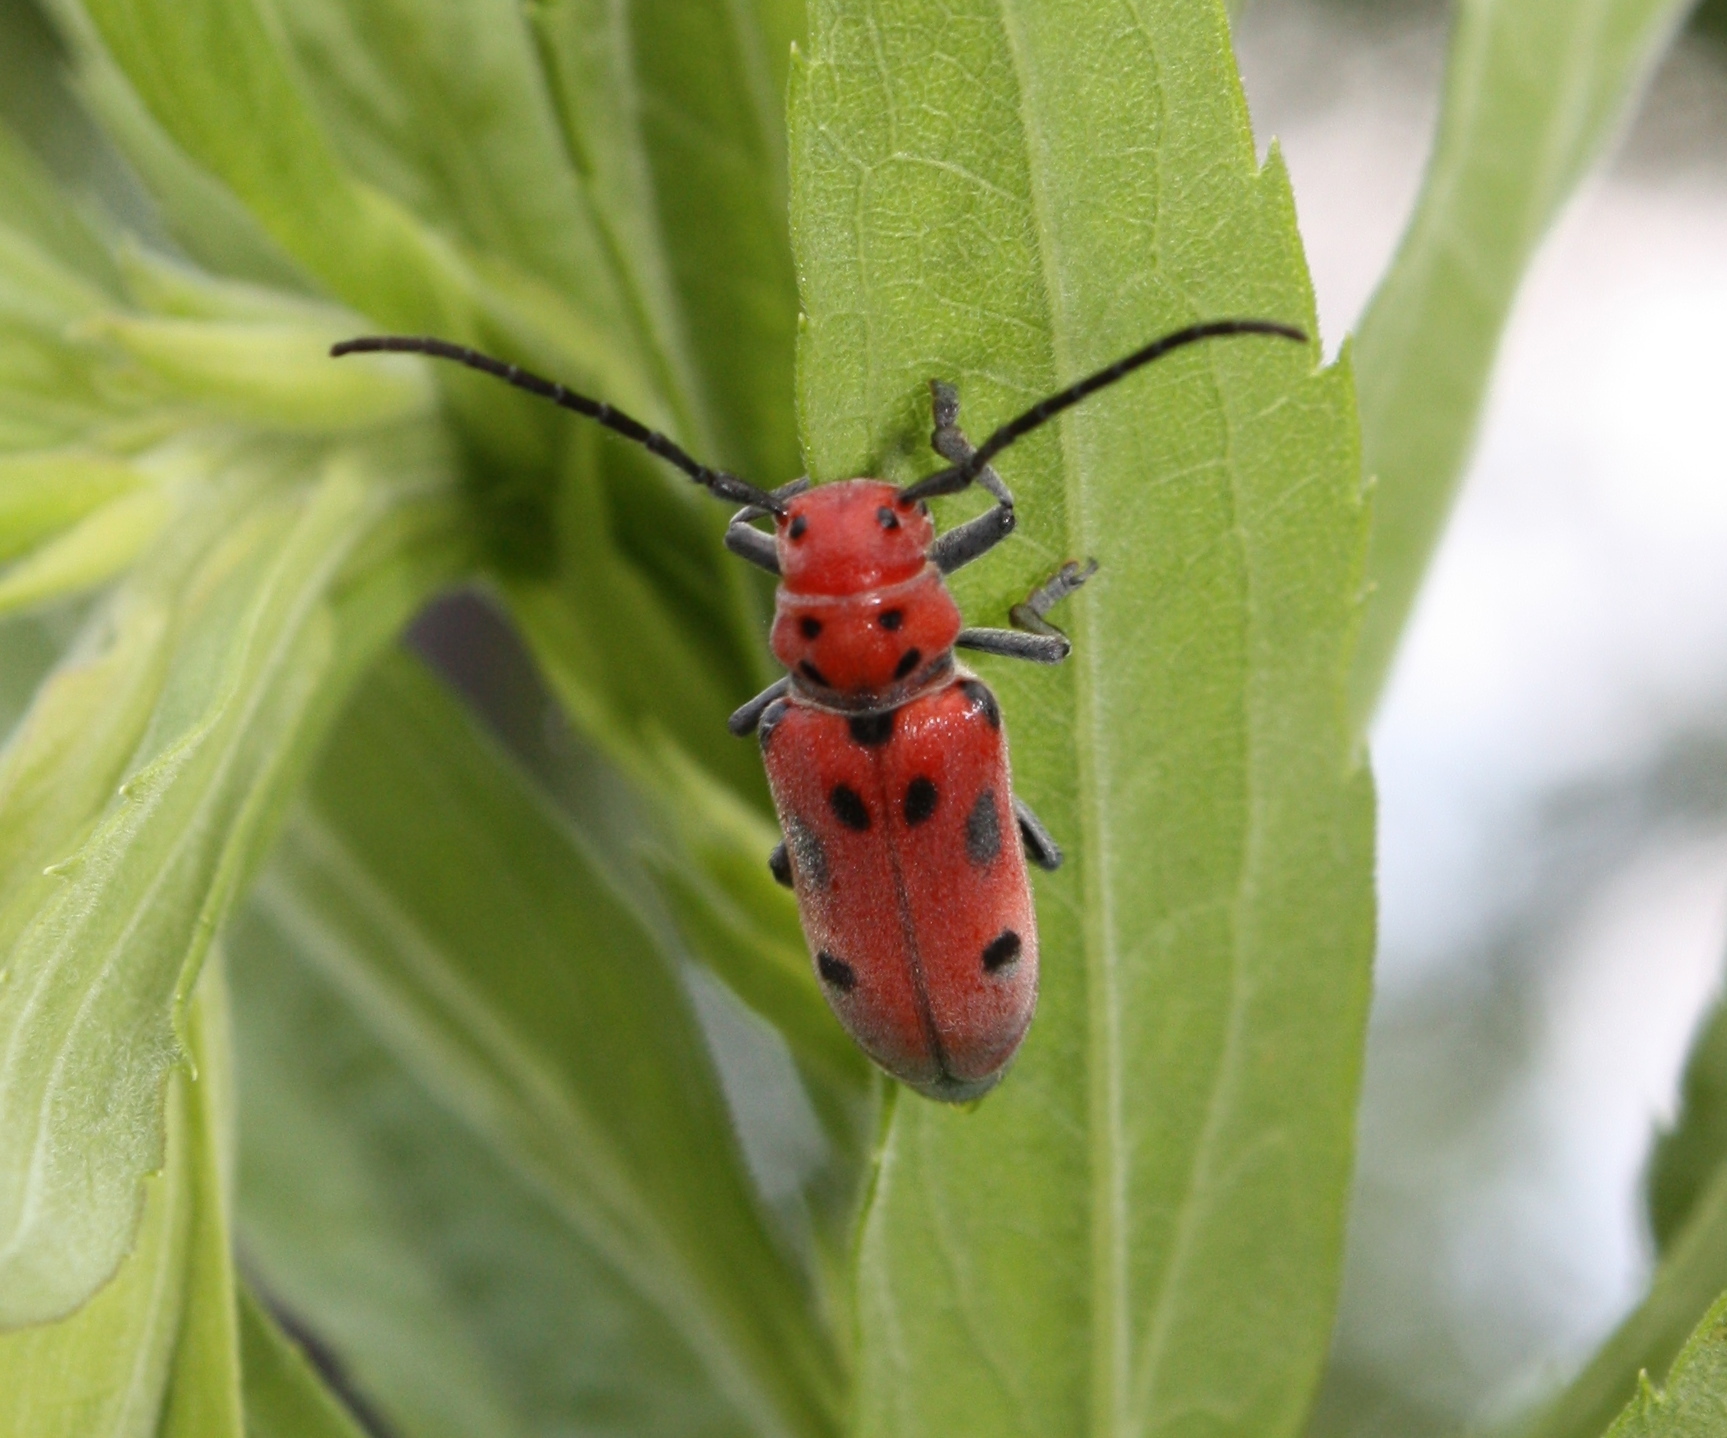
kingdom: Animalia
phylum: Arthropoda
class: Insecta
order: Coleoptera
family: Cerambycidae
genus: Tetraopes
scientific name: Tetraopes tetrophthalmus
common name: Red milkweed beetle
